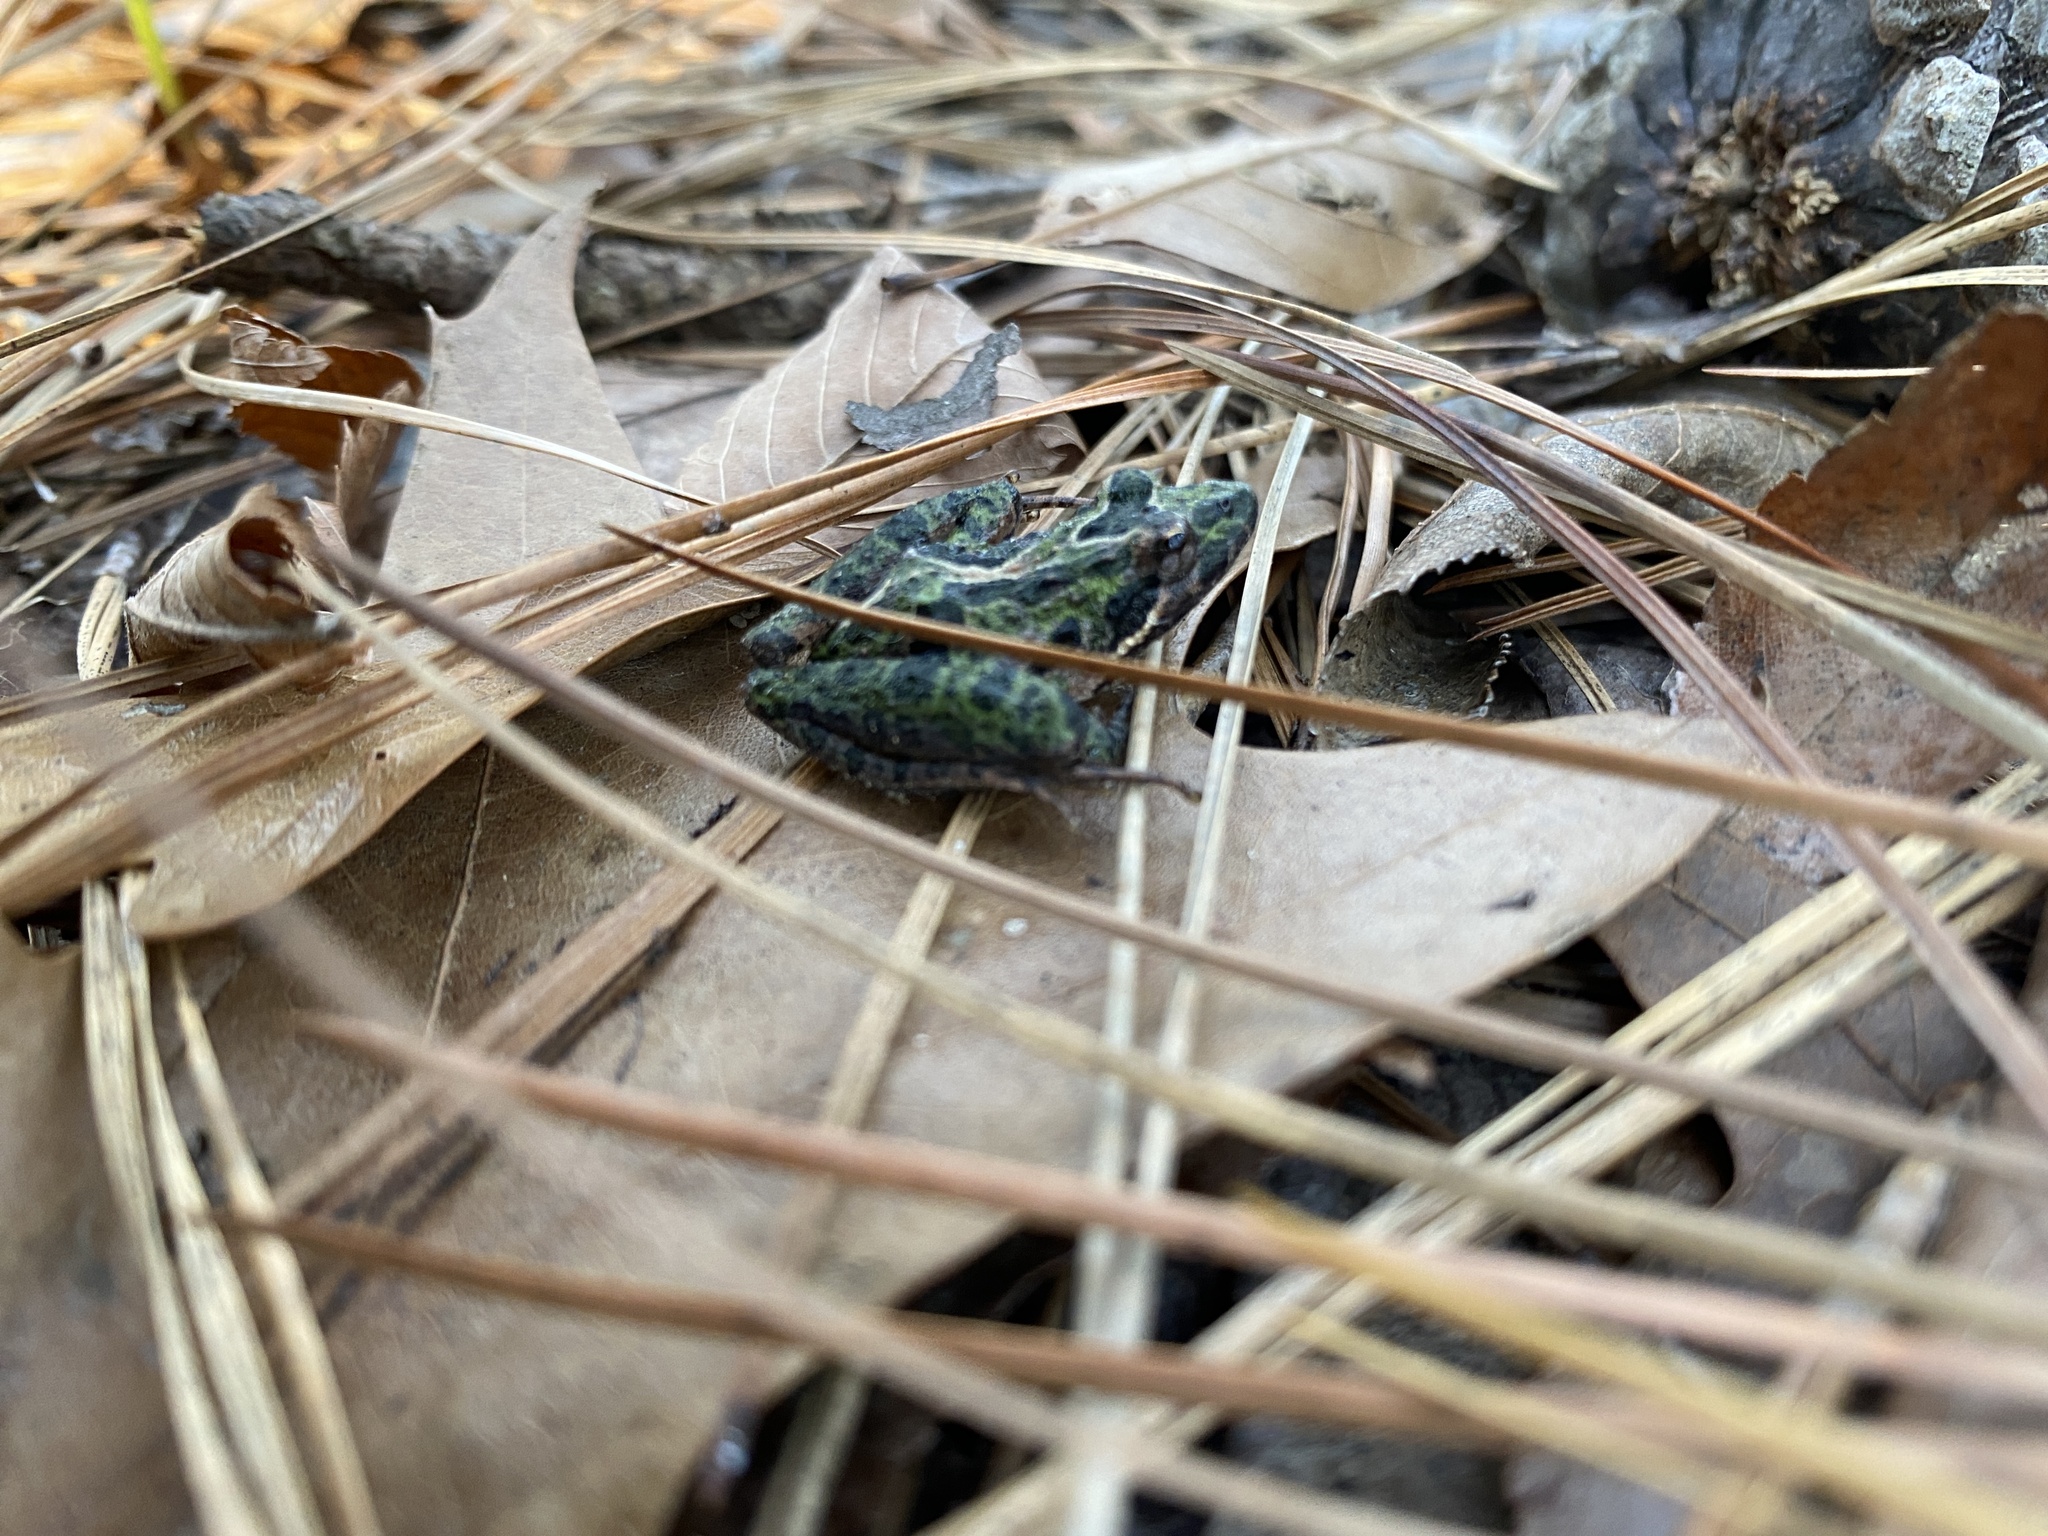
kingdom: Animalia
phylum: Chordata
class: Amphibia
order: Anura
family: Hylidae
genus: Acris
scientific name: Acris gryllus
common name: Southern cricket frog
